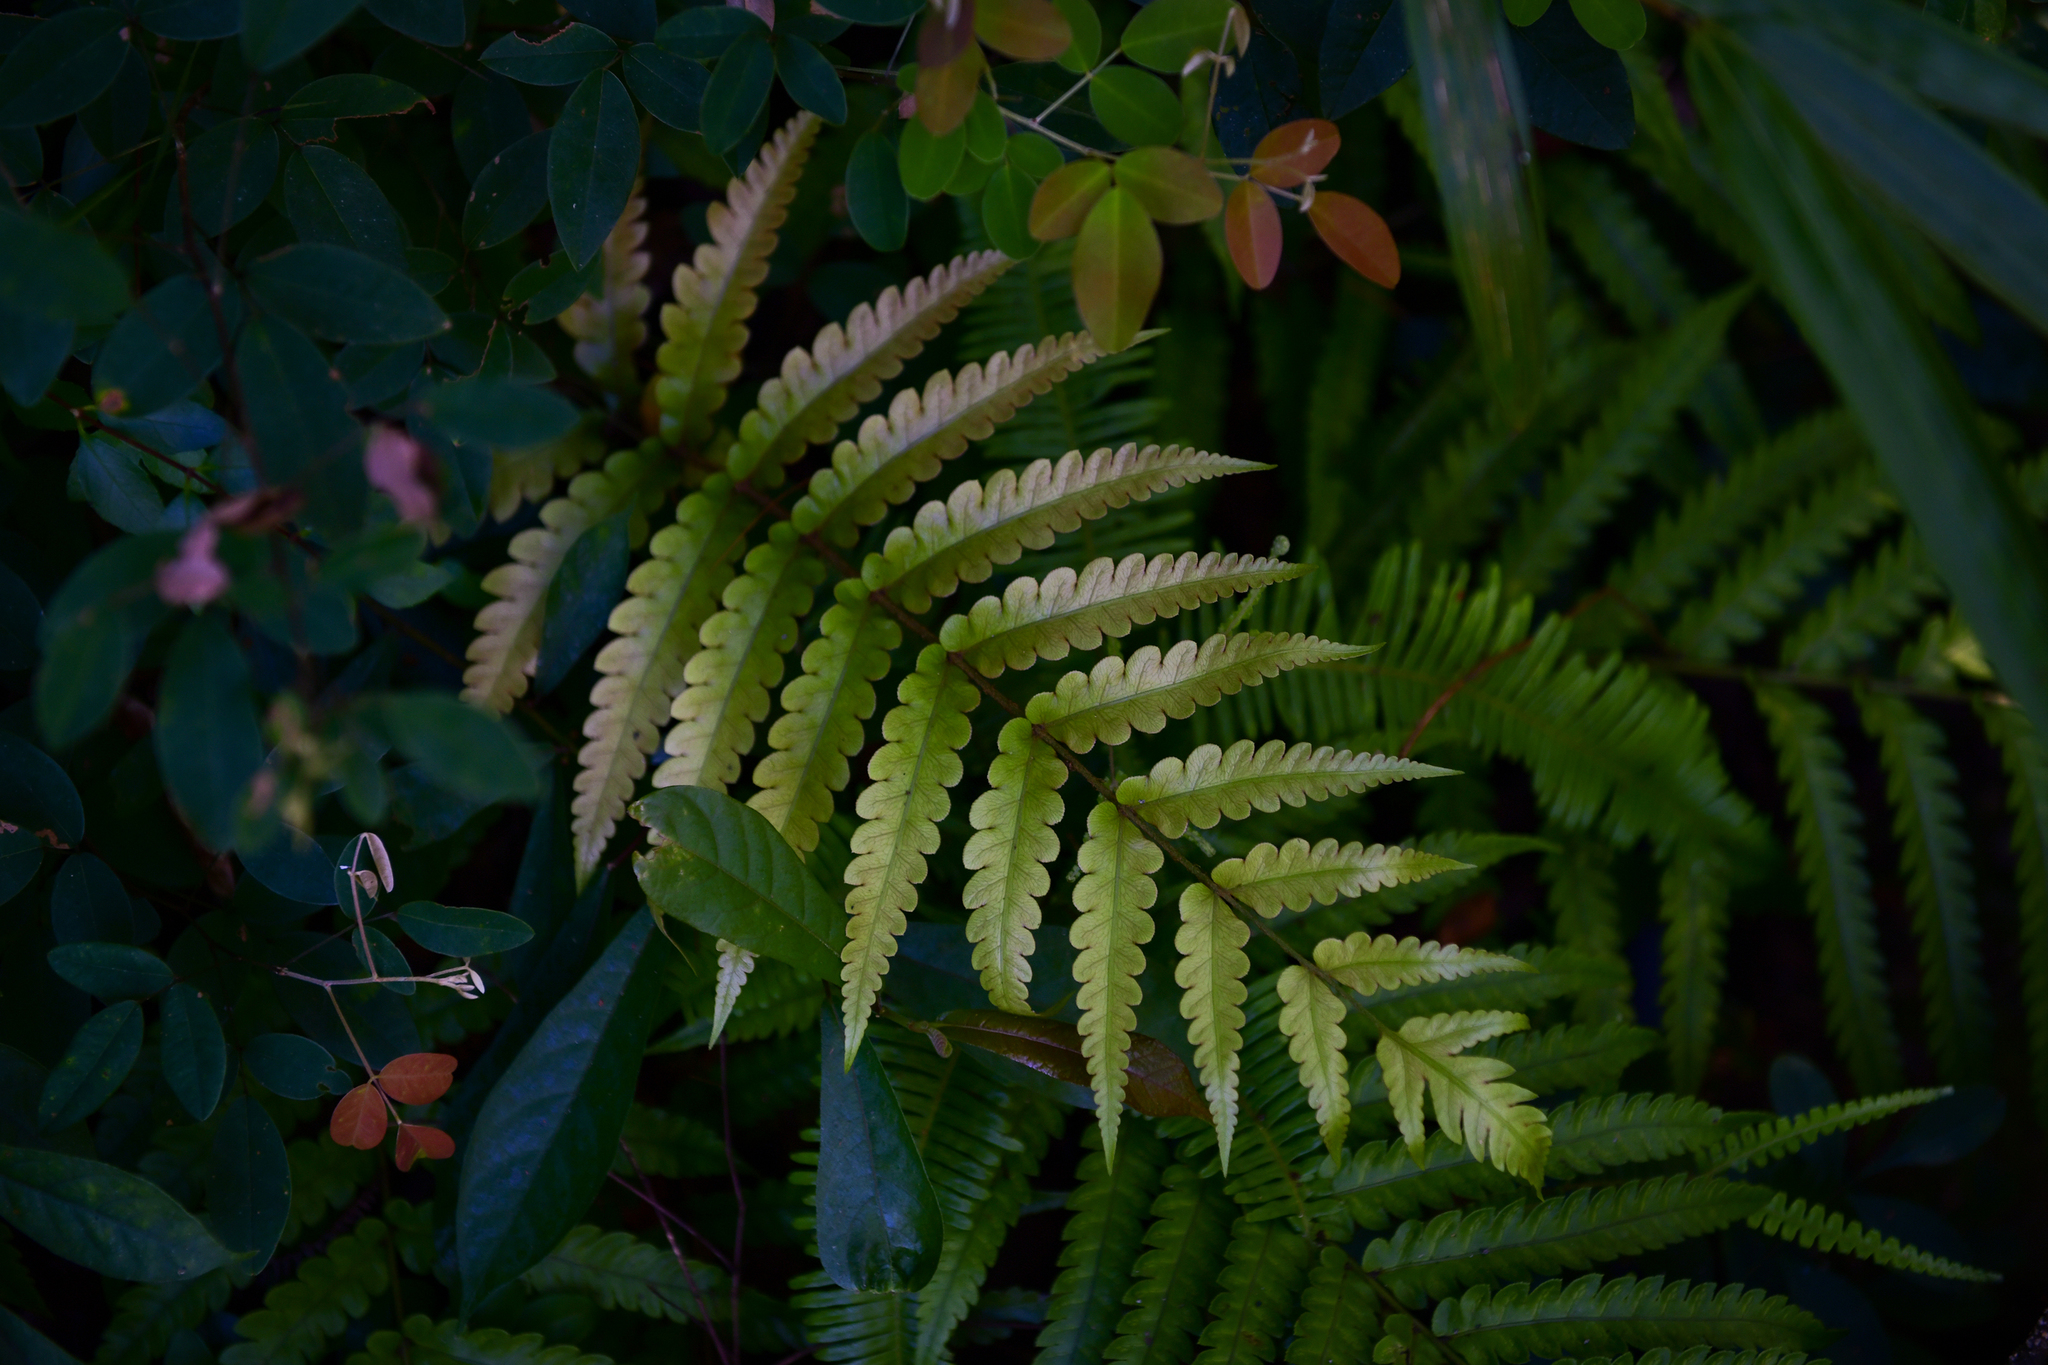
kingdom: Plantae
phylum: Tracheophyta
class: Polypodiopsida
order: Polypodiales
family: Blechnaceae
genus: Woodwardia
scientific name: Woodwardia japonica
